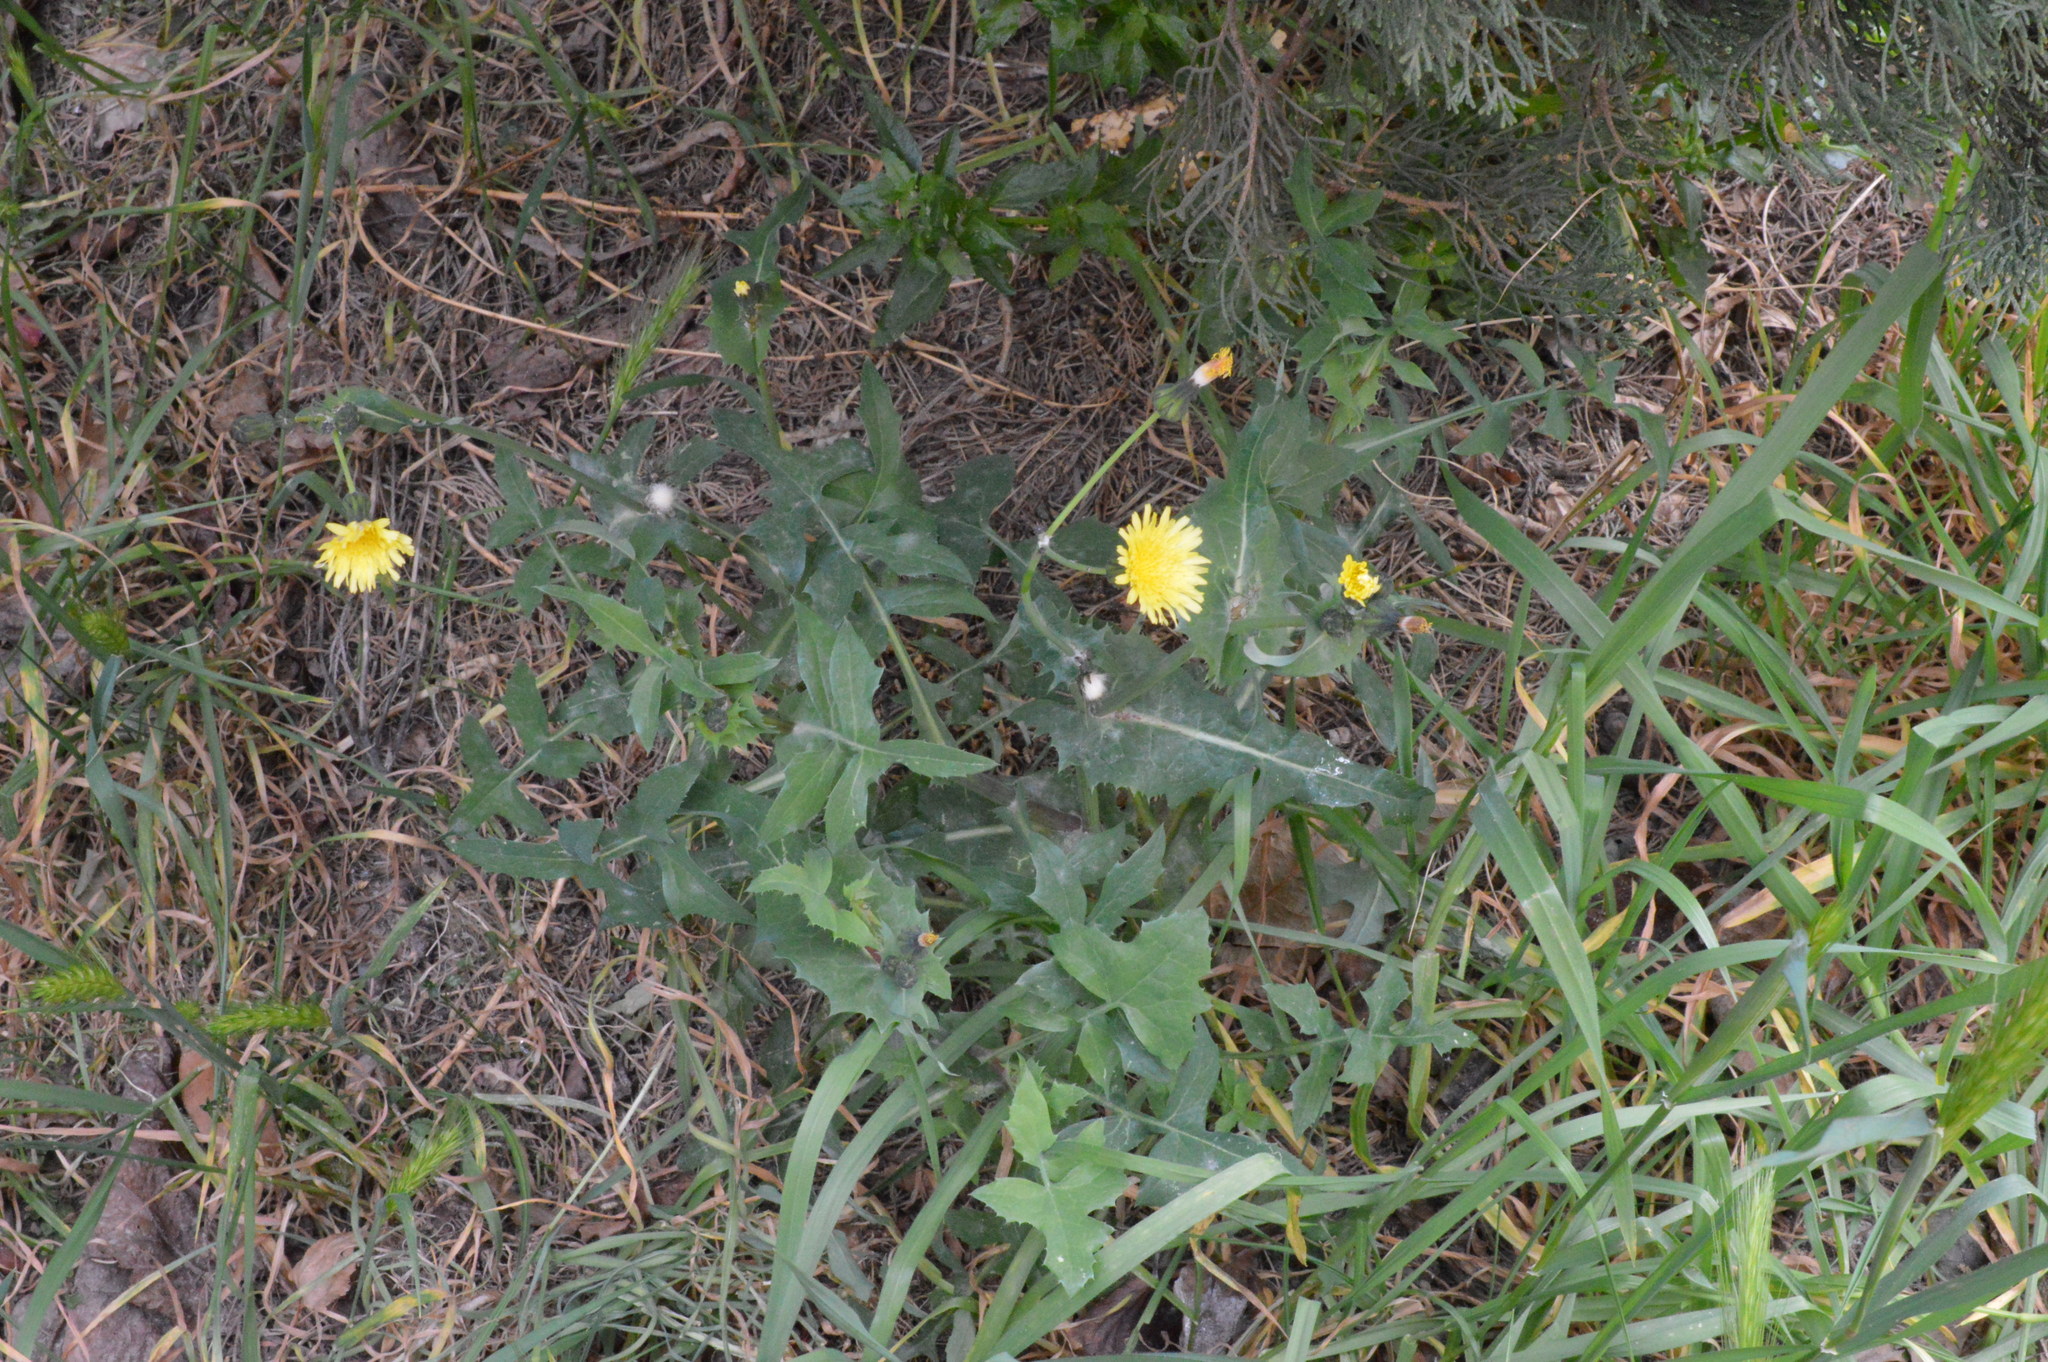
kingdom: Plantae
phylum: Tracheophyta
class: Magnoliopsida
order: Asterales
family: Asteraceae
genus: Sonchus
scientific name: Sonchus oleraceus
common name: Common sowthistle
